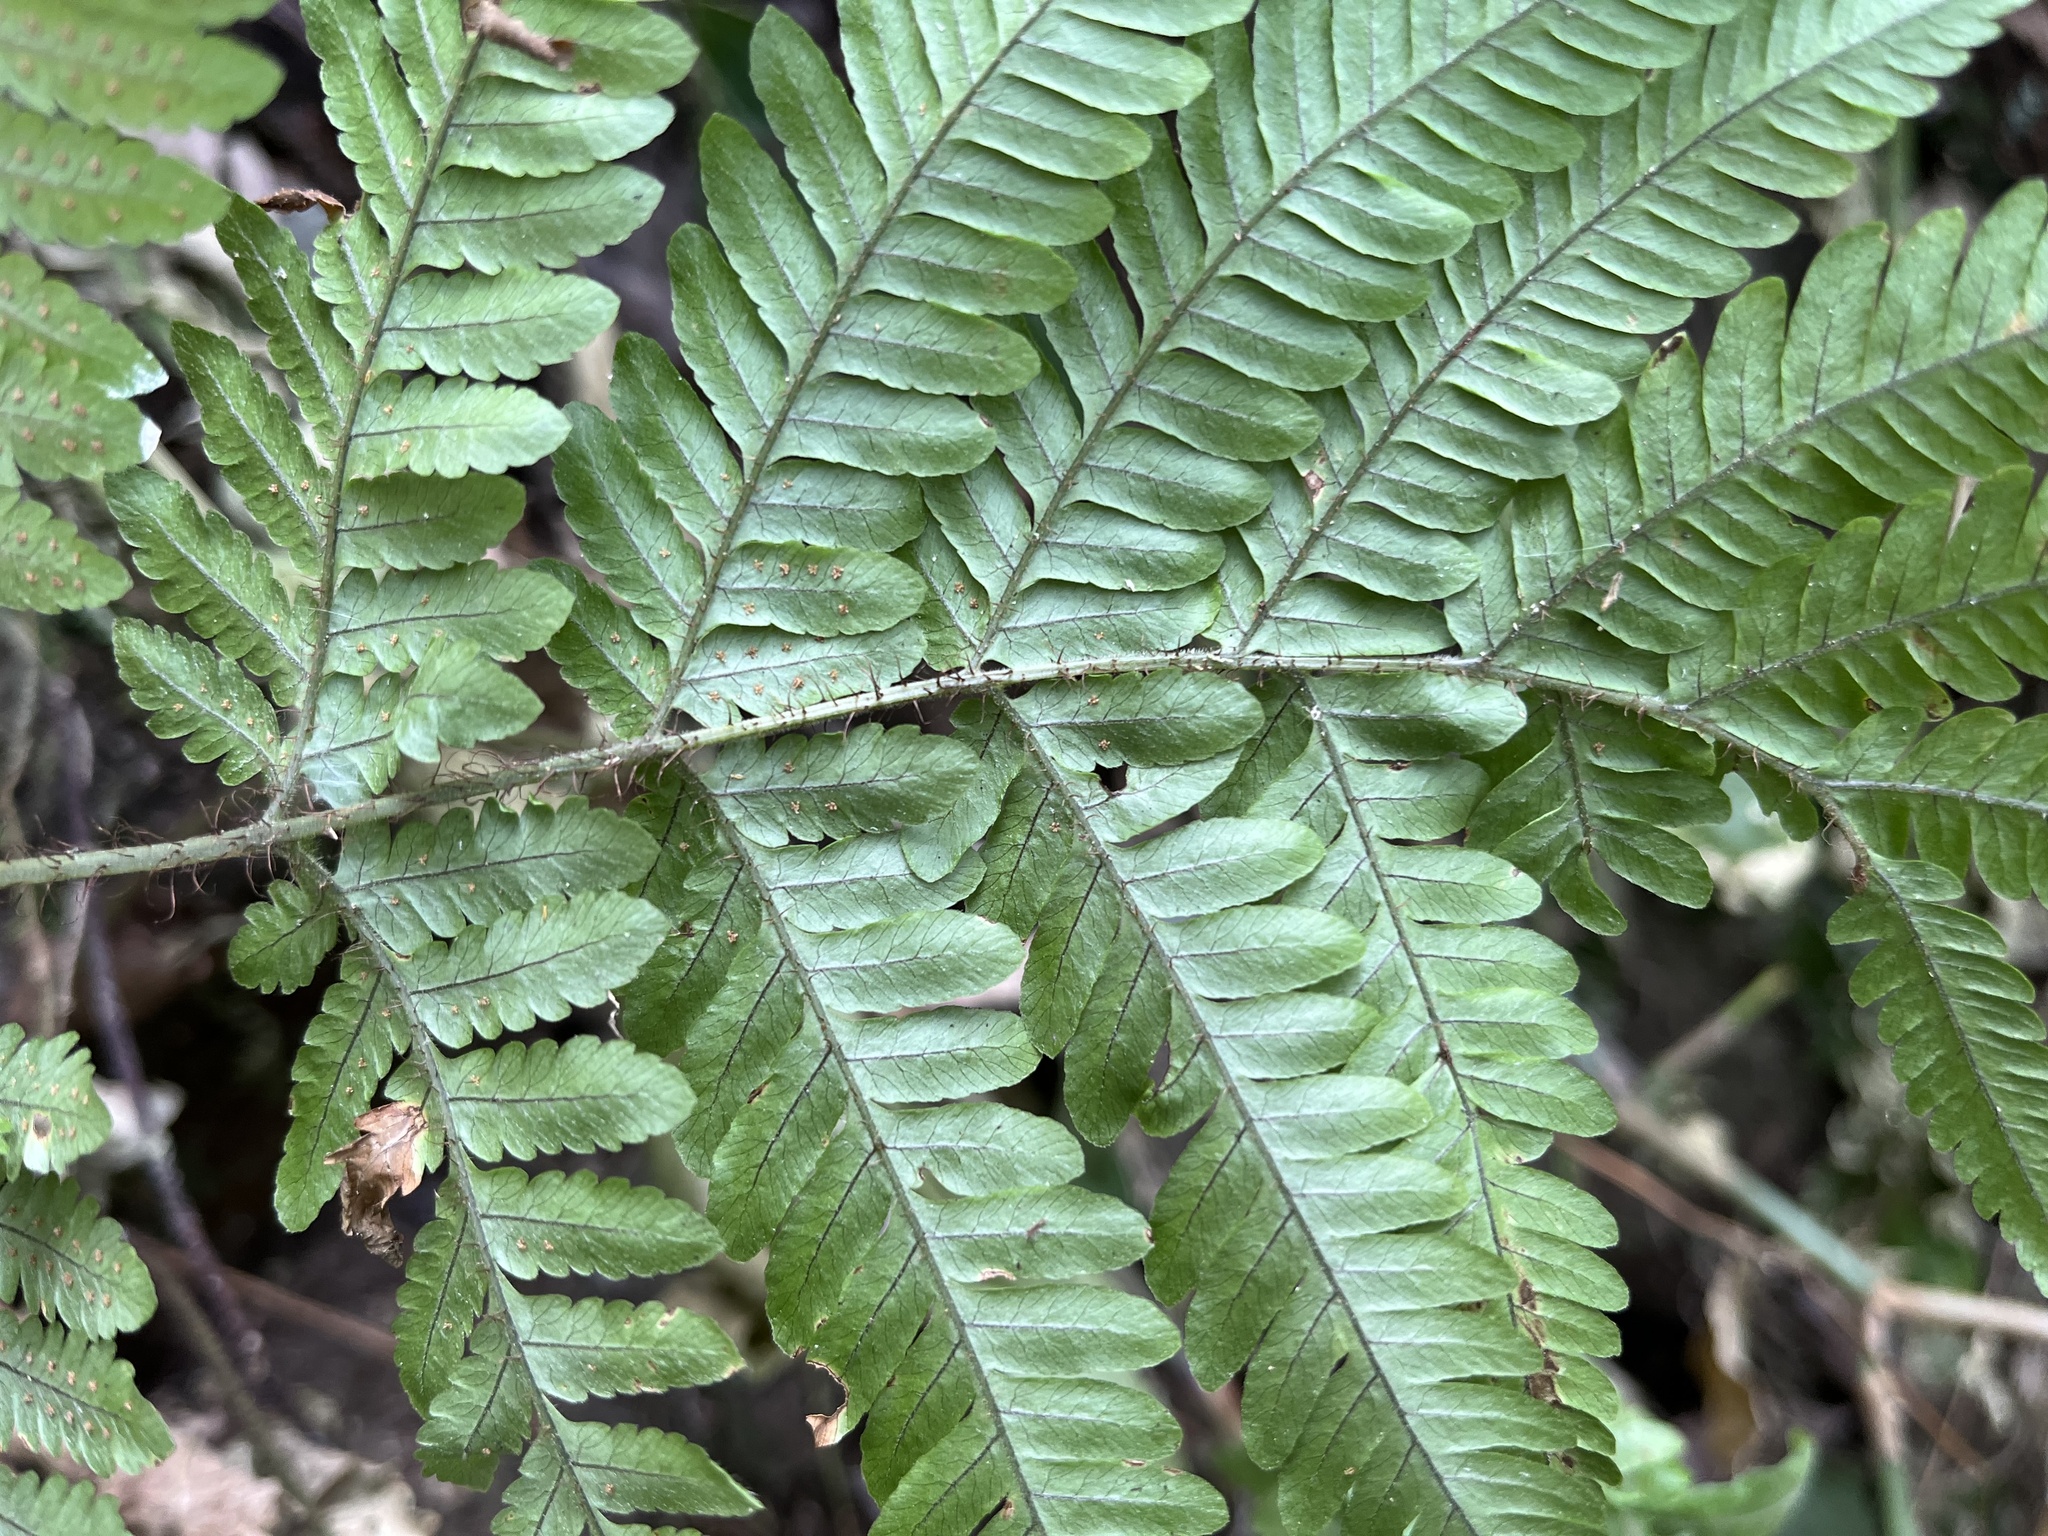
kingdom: Plantae
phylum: Tracheophyta
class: Polypodiopsida
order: Polypodiales
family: Dryopteridaceae
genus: Ctenitis
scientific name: Ctenitis eatonii
